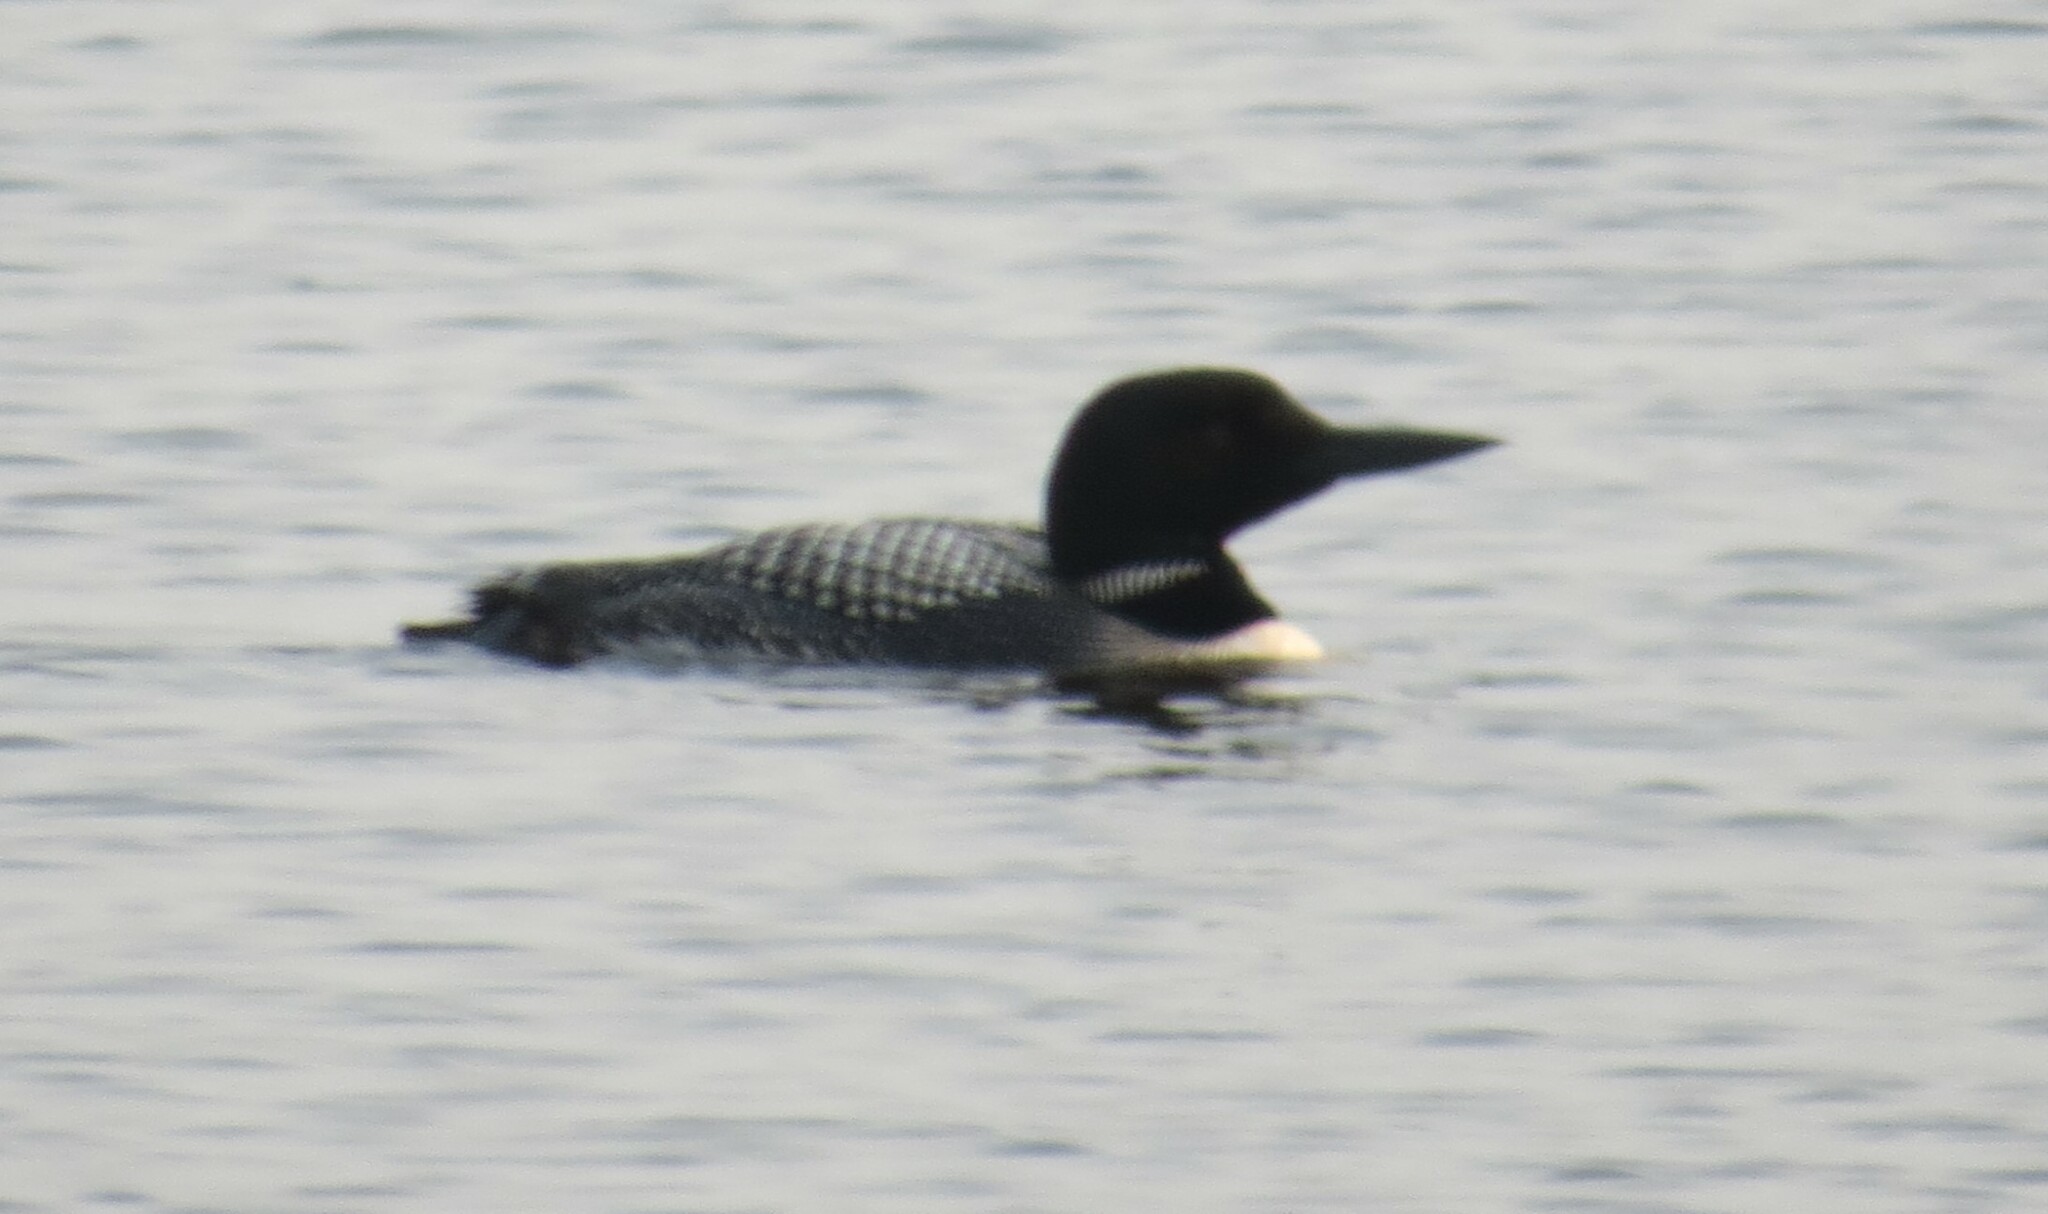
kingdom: Animalia
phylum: Chordata
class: Aves
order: Gaviiformes
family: Gaviidae
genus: Gavia
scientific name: Gavia immer
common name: Common loon
